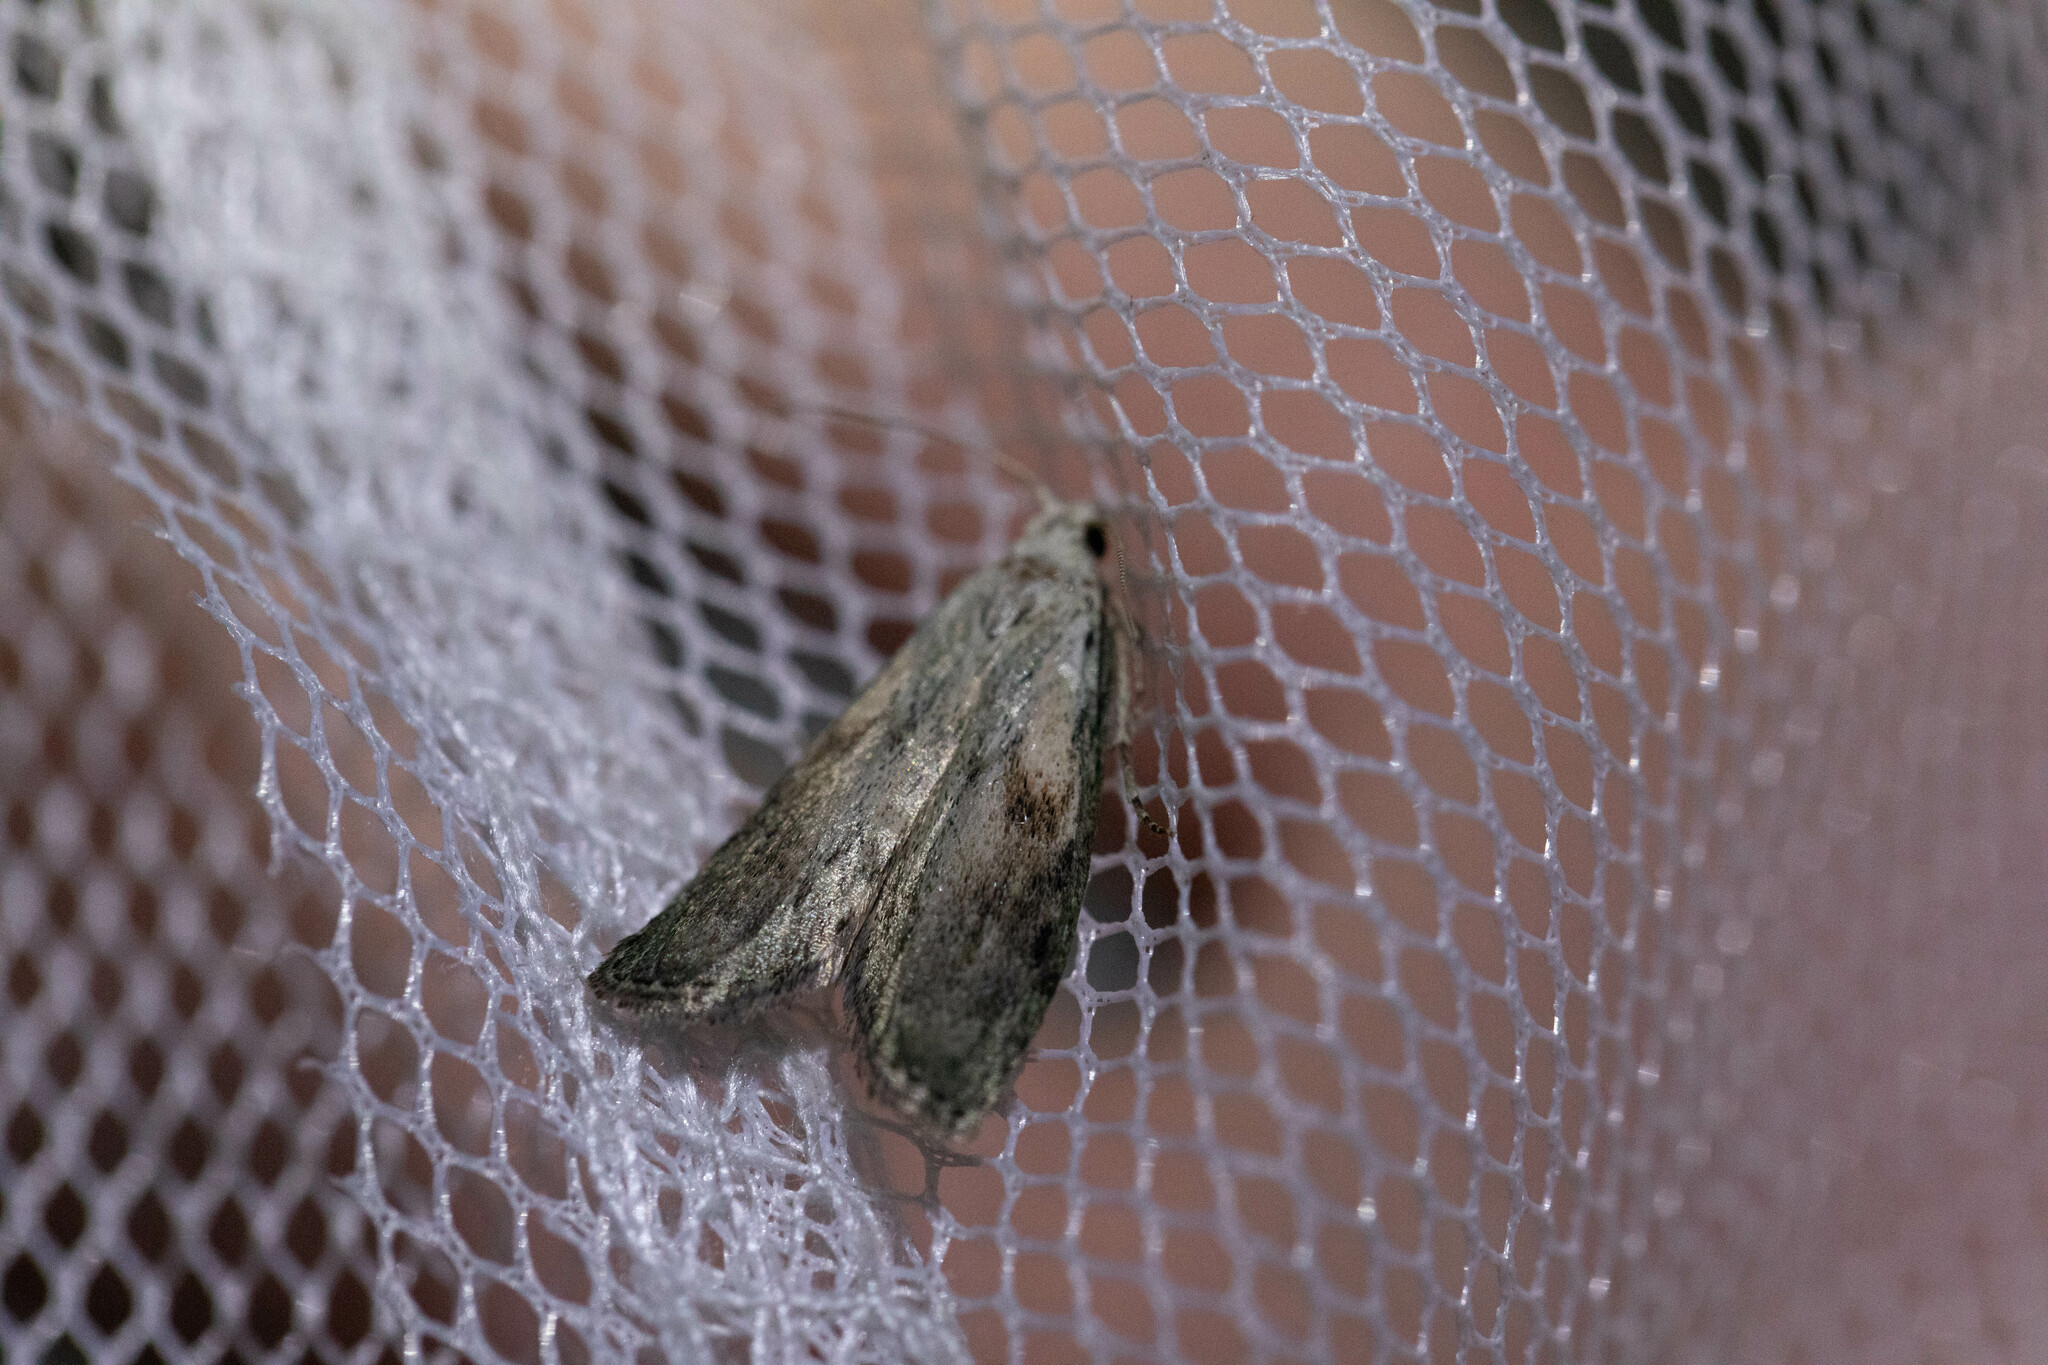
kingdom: Animalia
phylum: Arthropoda
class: Insecta
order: Lepidoptera
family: Pyralidae
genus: Aphomia
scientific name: Aphomia sociella
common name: Bee moth
